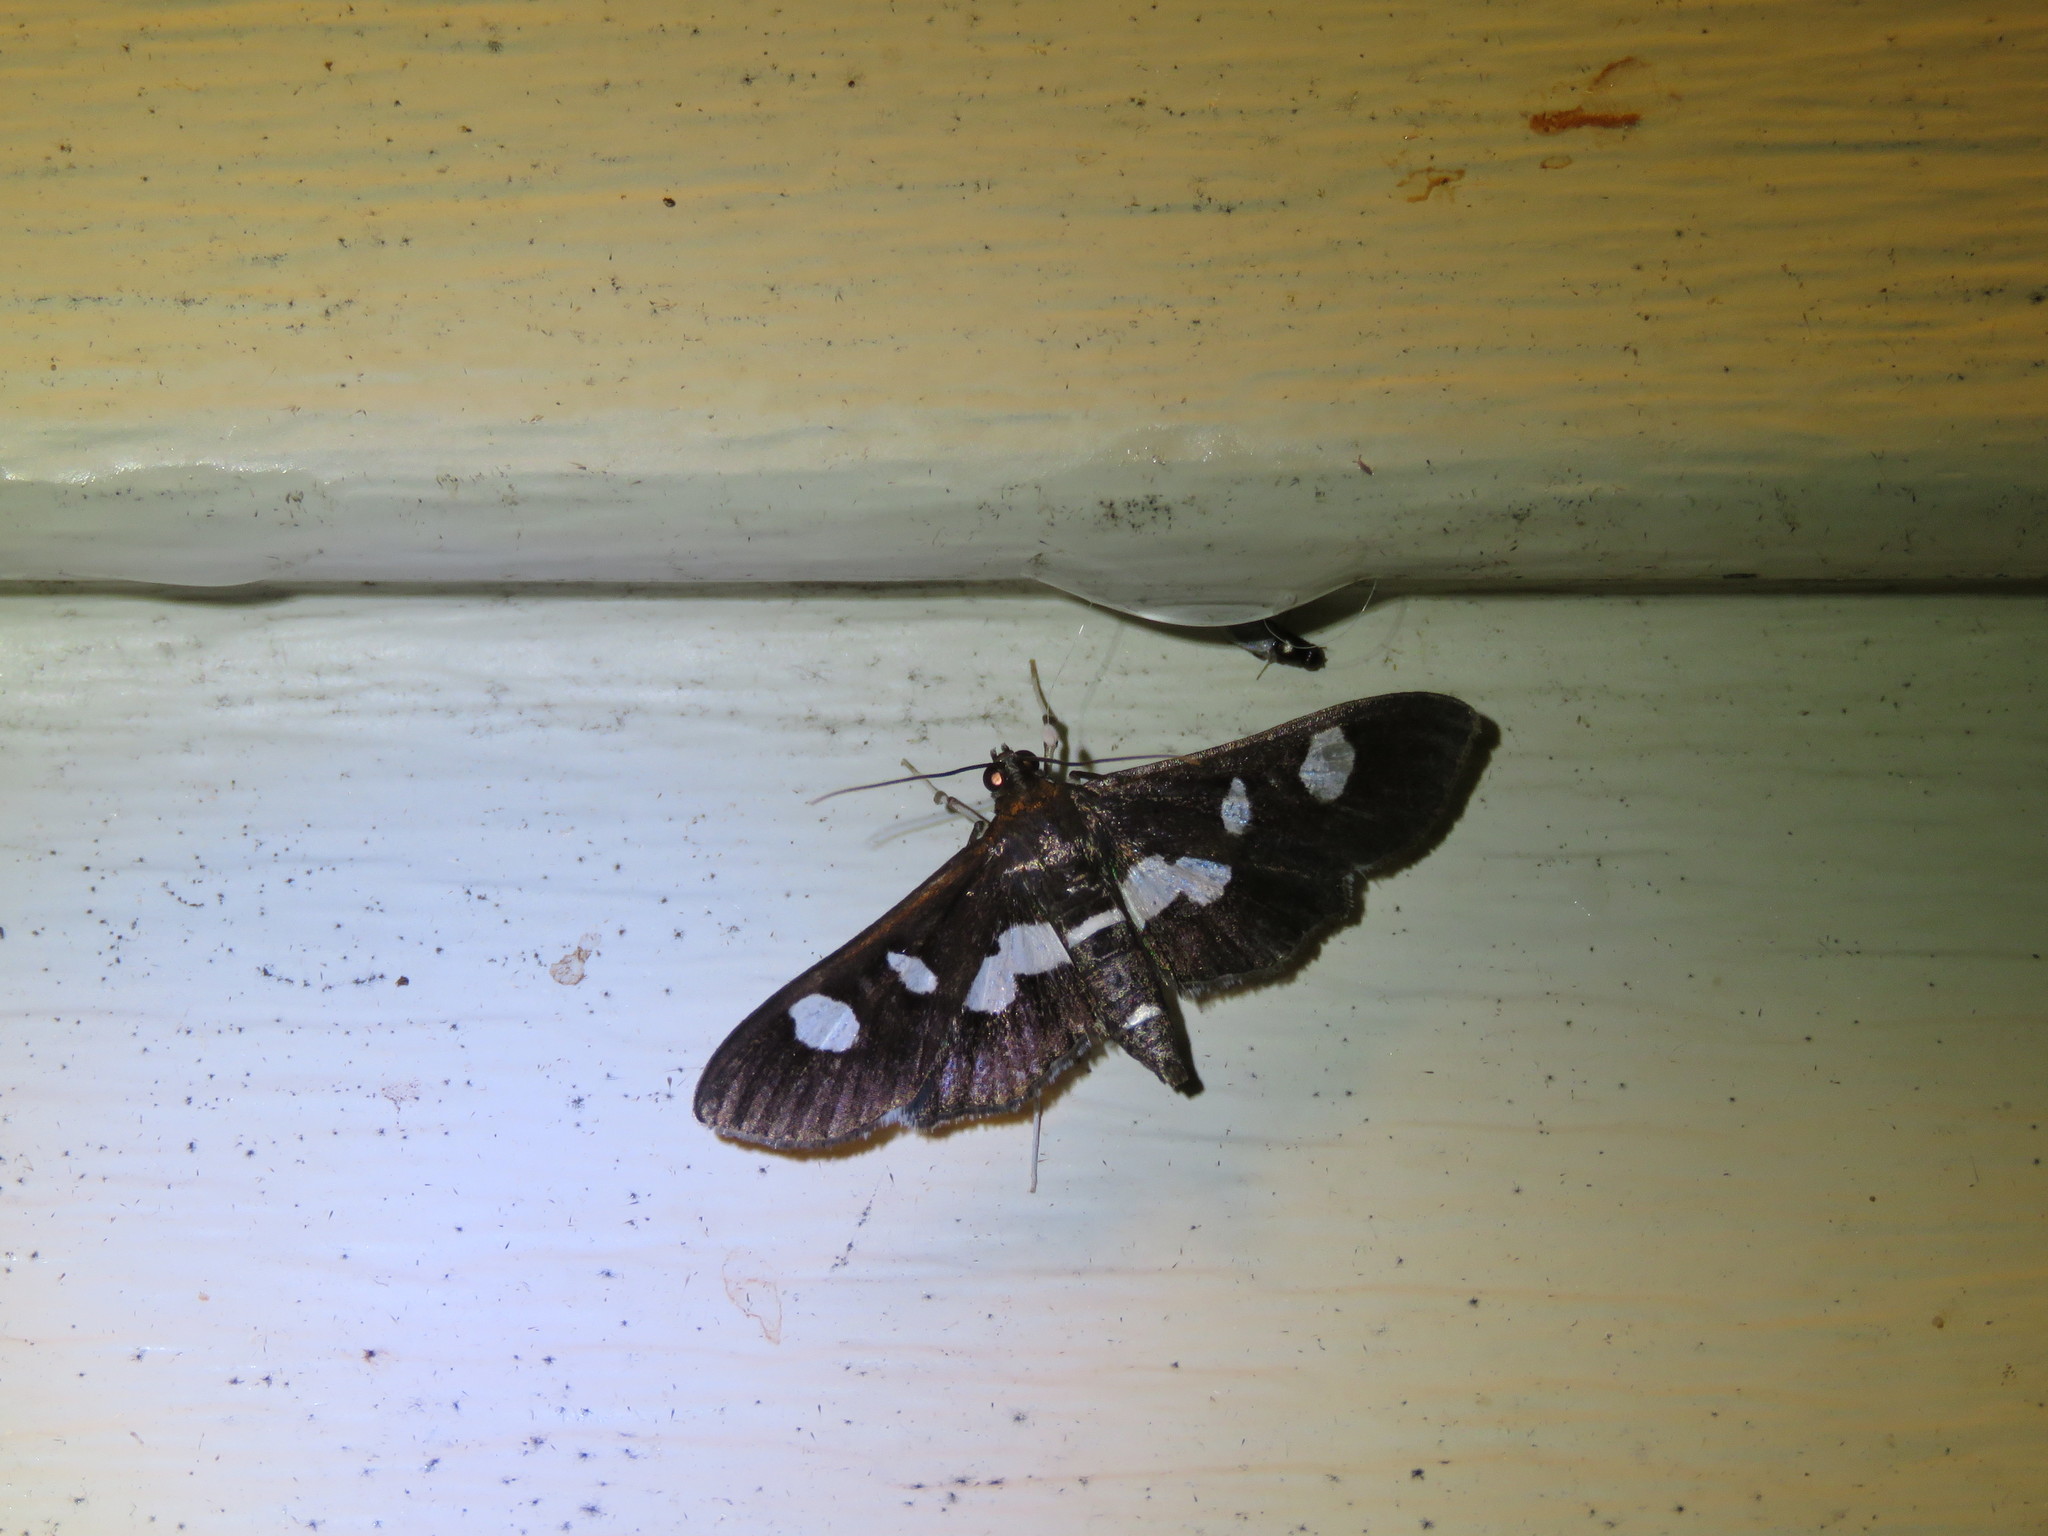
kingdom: Animalia
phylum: Arthropoda
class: Insecta
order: Lepidoptera
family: Crambidae
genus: Desmia
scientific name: Desmia funeralis
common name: Grape leaf folder moth
